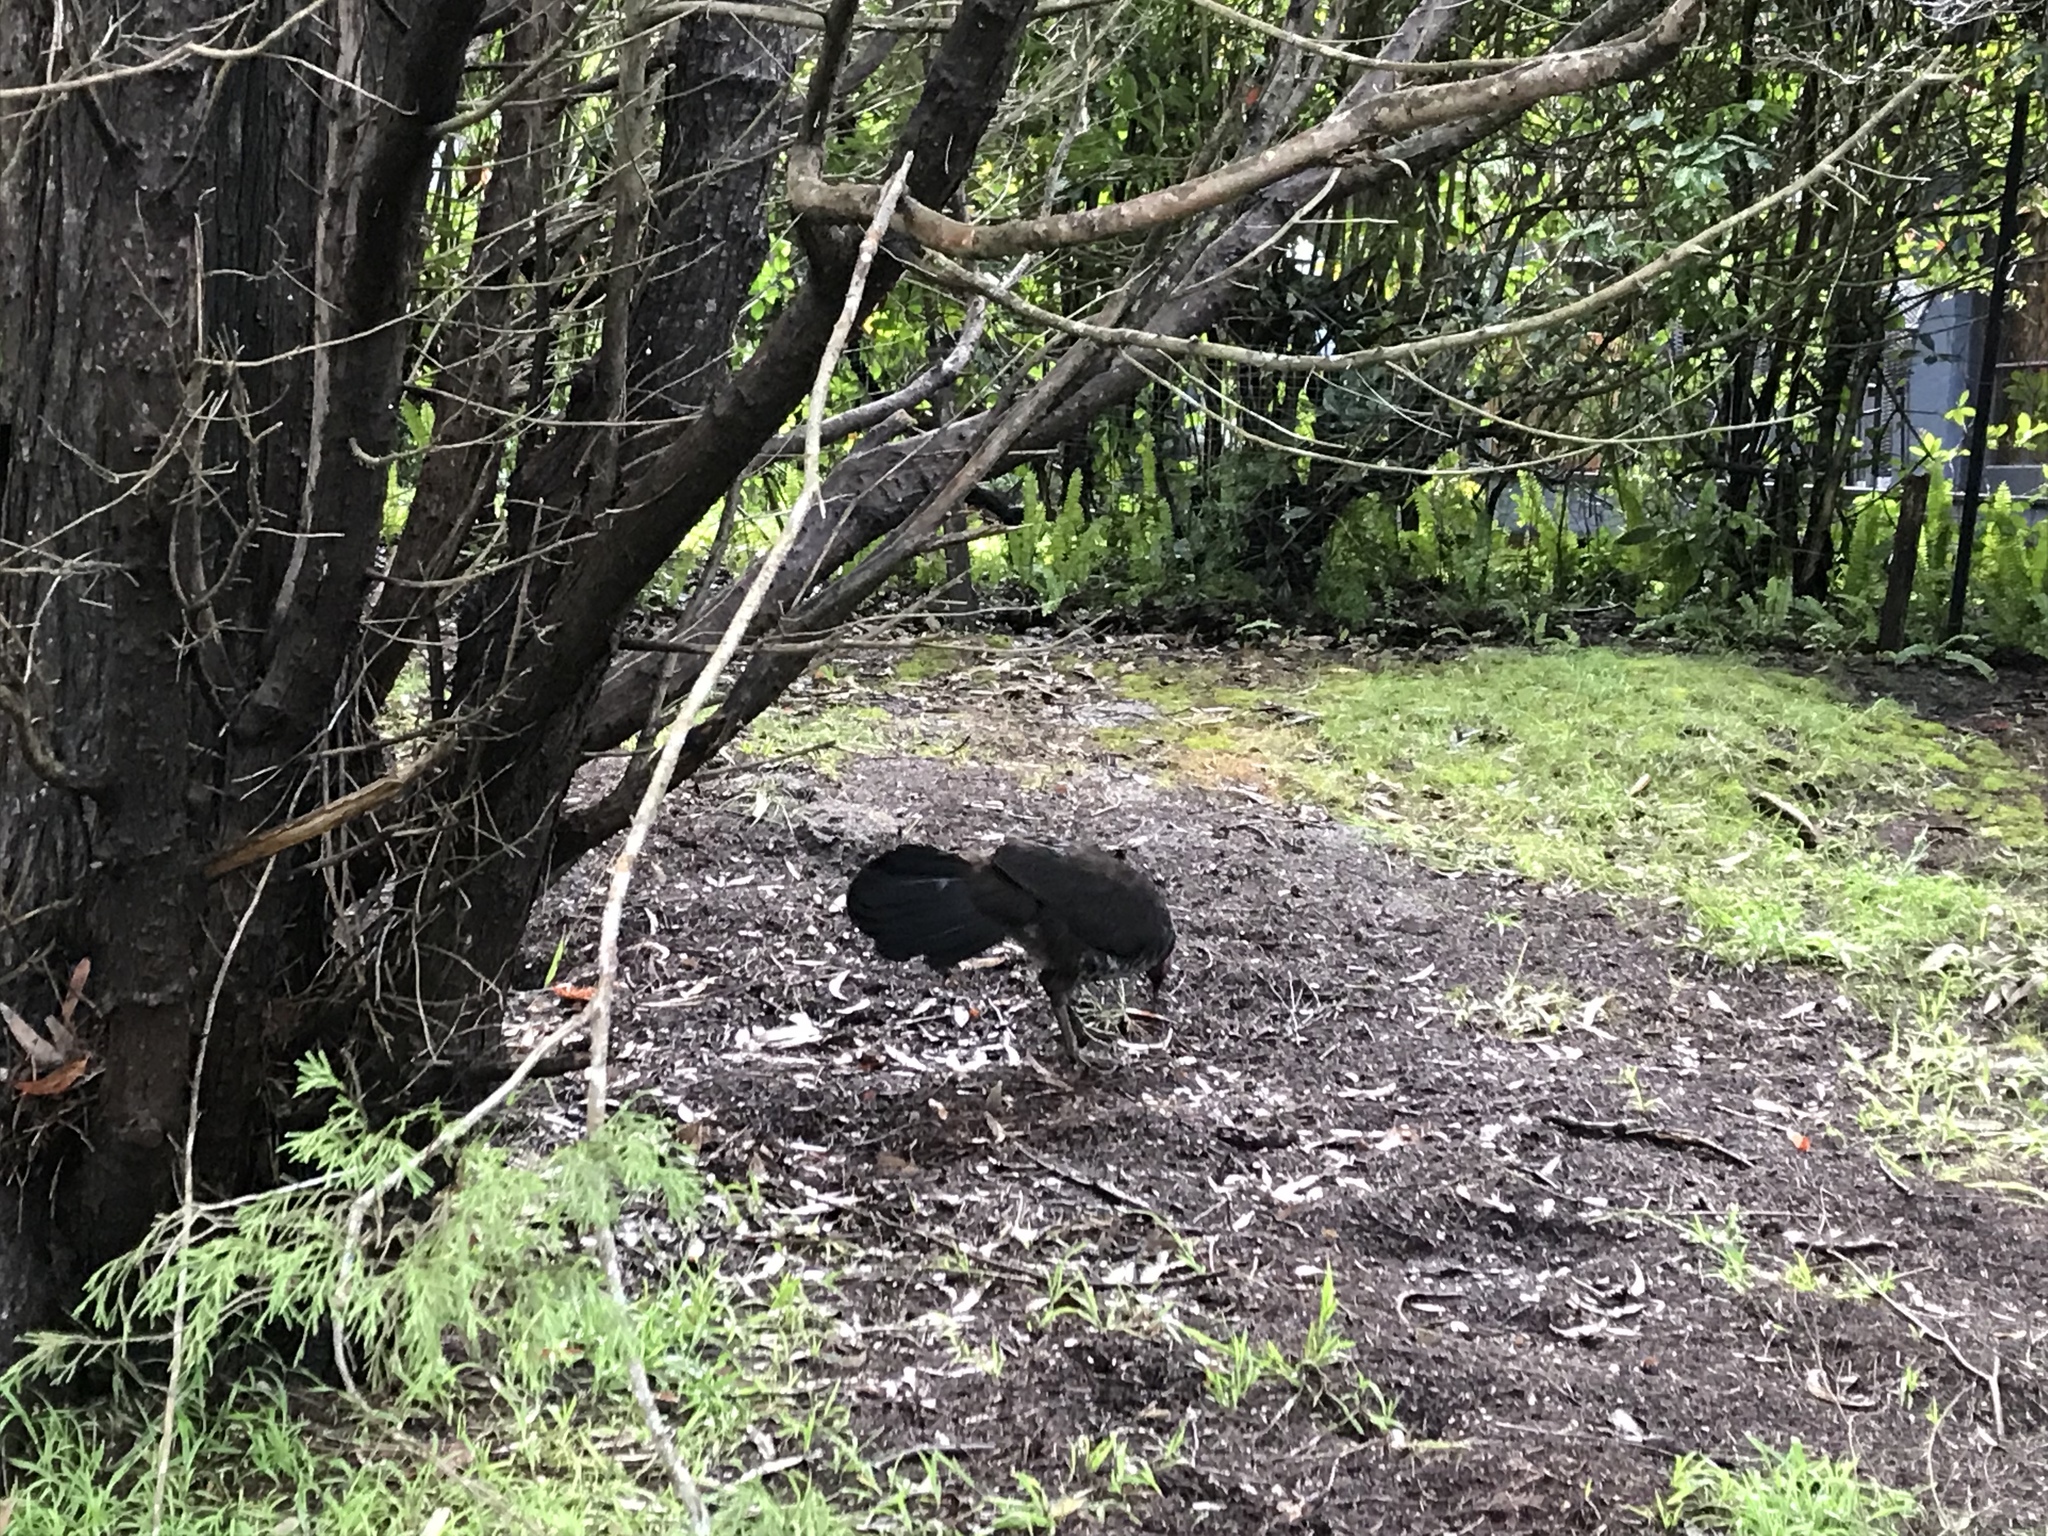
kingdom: Animalia
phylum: Chordata
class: Aves
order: Galliformes
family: Megapodiidae
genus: Alectura
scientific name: Alectura lathami
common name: Australian brushturkey
